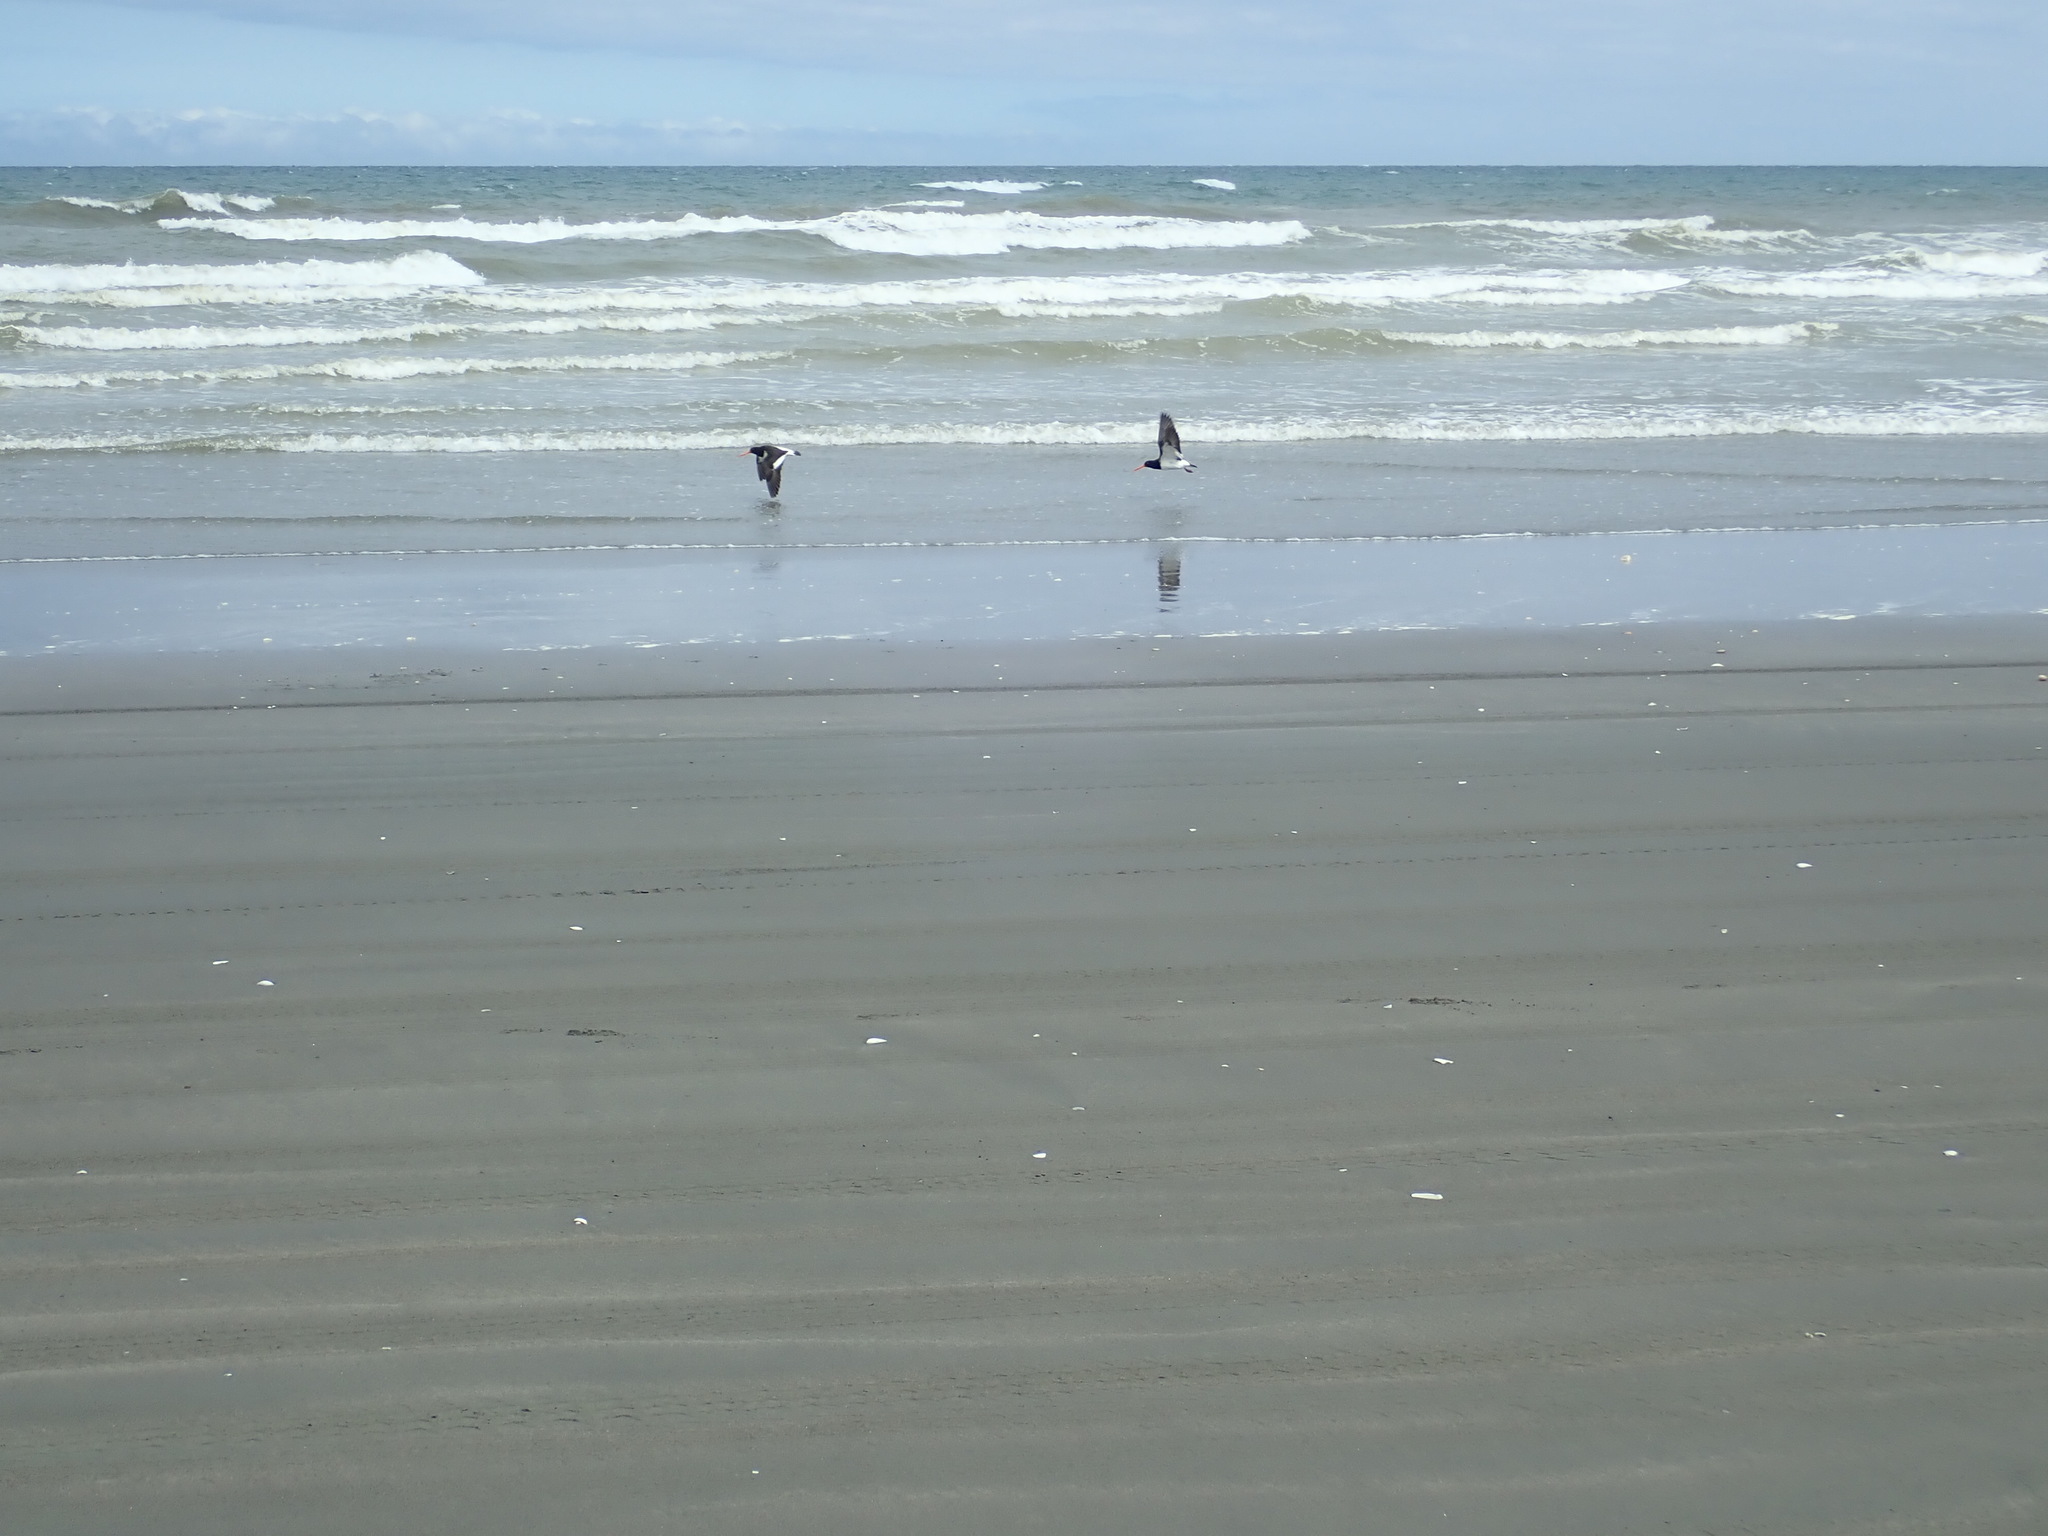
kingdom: Animalia
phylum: Chordata
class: Aves
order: Charadriiformes
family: Haematopodidae
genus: Haematopus
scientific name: Haematopus finschi
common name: South island oystercatcher
